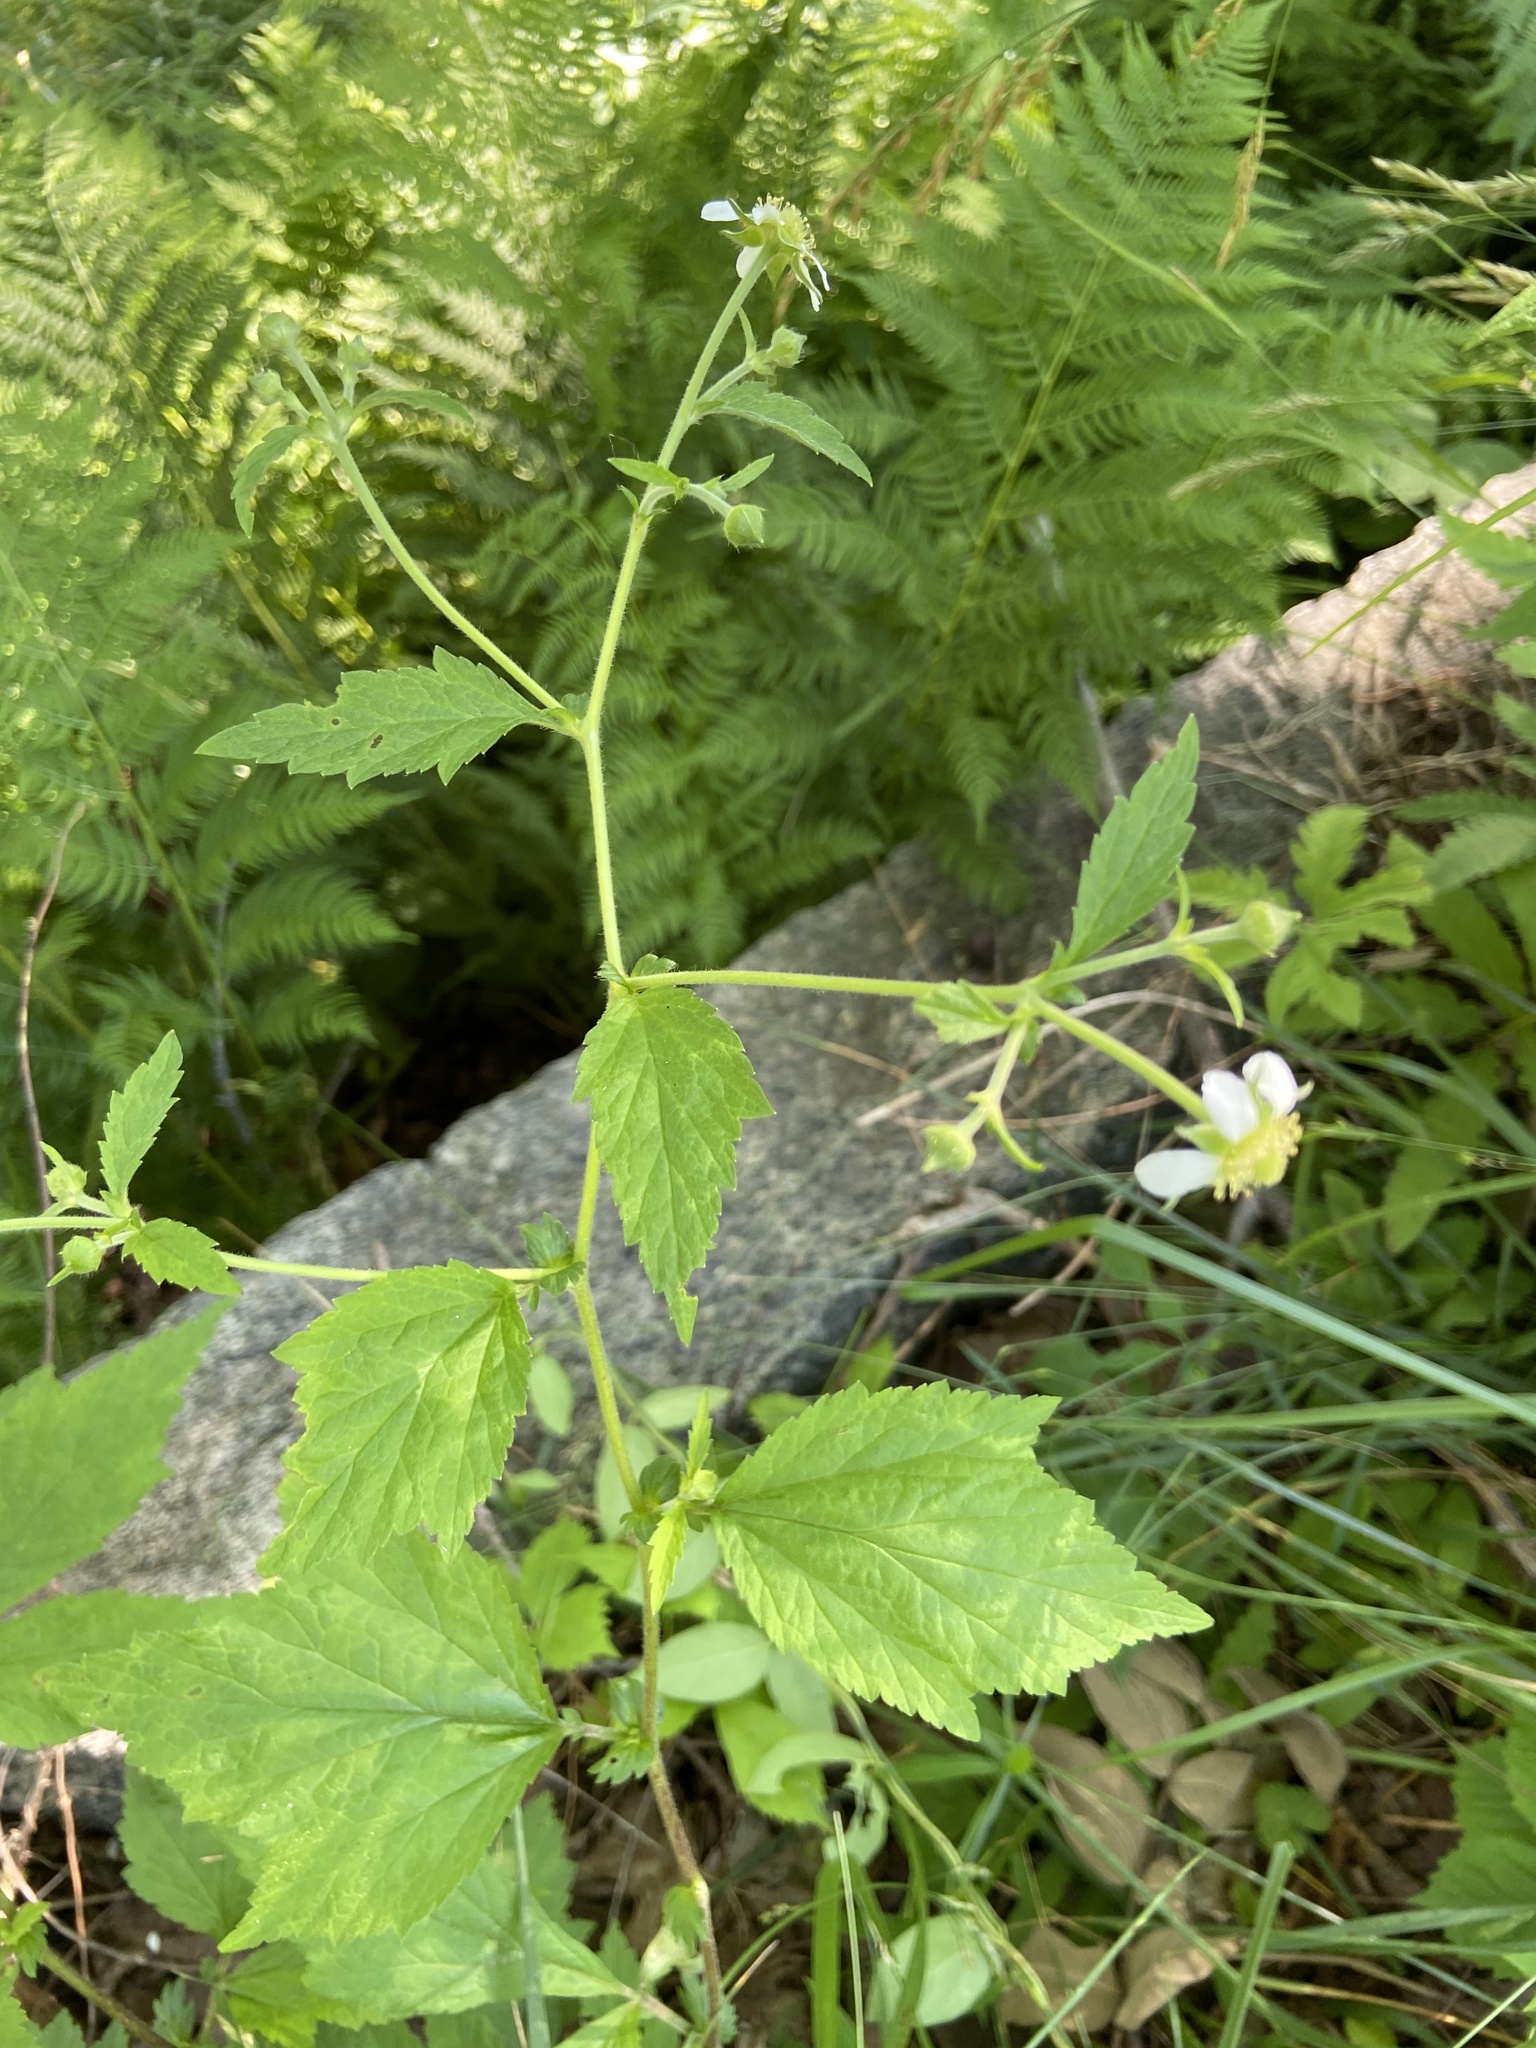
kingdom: Plantae
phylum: Tracheophyta
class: Magnoliopsida
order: Rosales
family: Rosaceae
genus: Geum
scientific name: Geum canadense
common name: White avens
